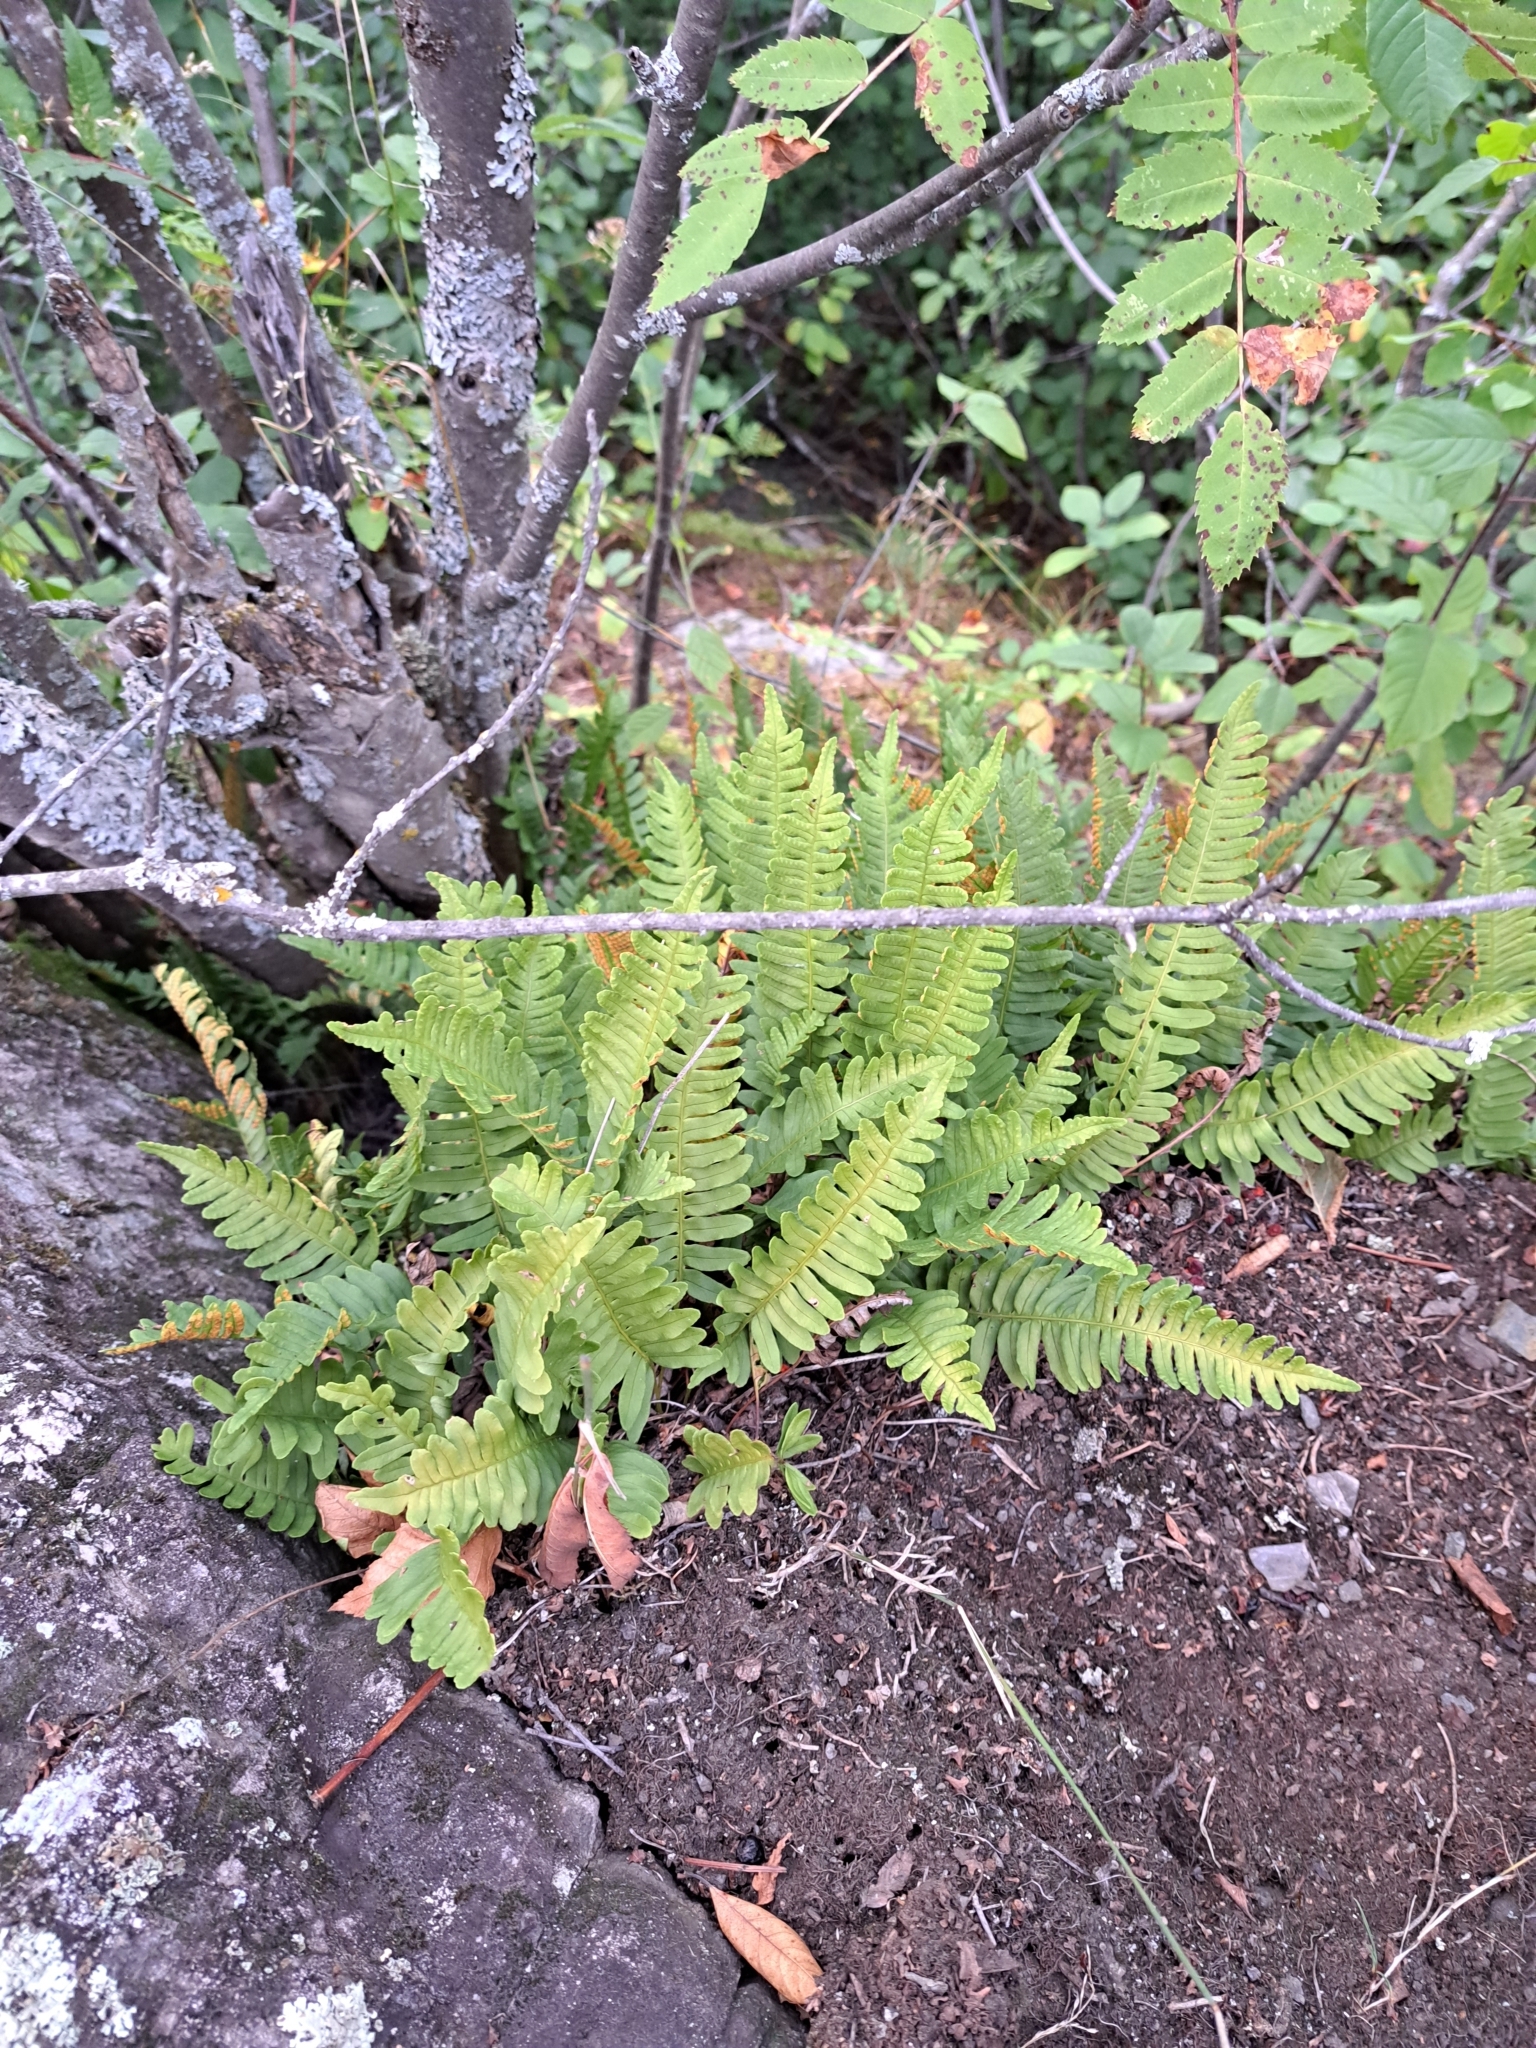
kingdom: Plantae
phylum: Tracheophyta
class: Polypodiopsida
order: Polypodiales
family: Polypodiaceae
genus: Polypodium
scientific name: Polypodium virginianum
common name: American wall fern
